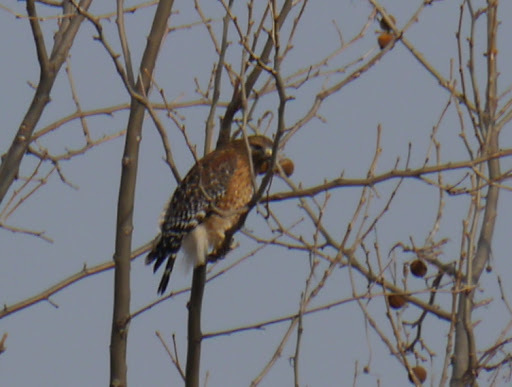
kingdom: Animalia
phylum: Chordata
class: Aves
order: Accipitriformes
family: Accipitridae
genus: Buteo
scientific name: Buteo lineatus
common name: Red-shouldered hawk
